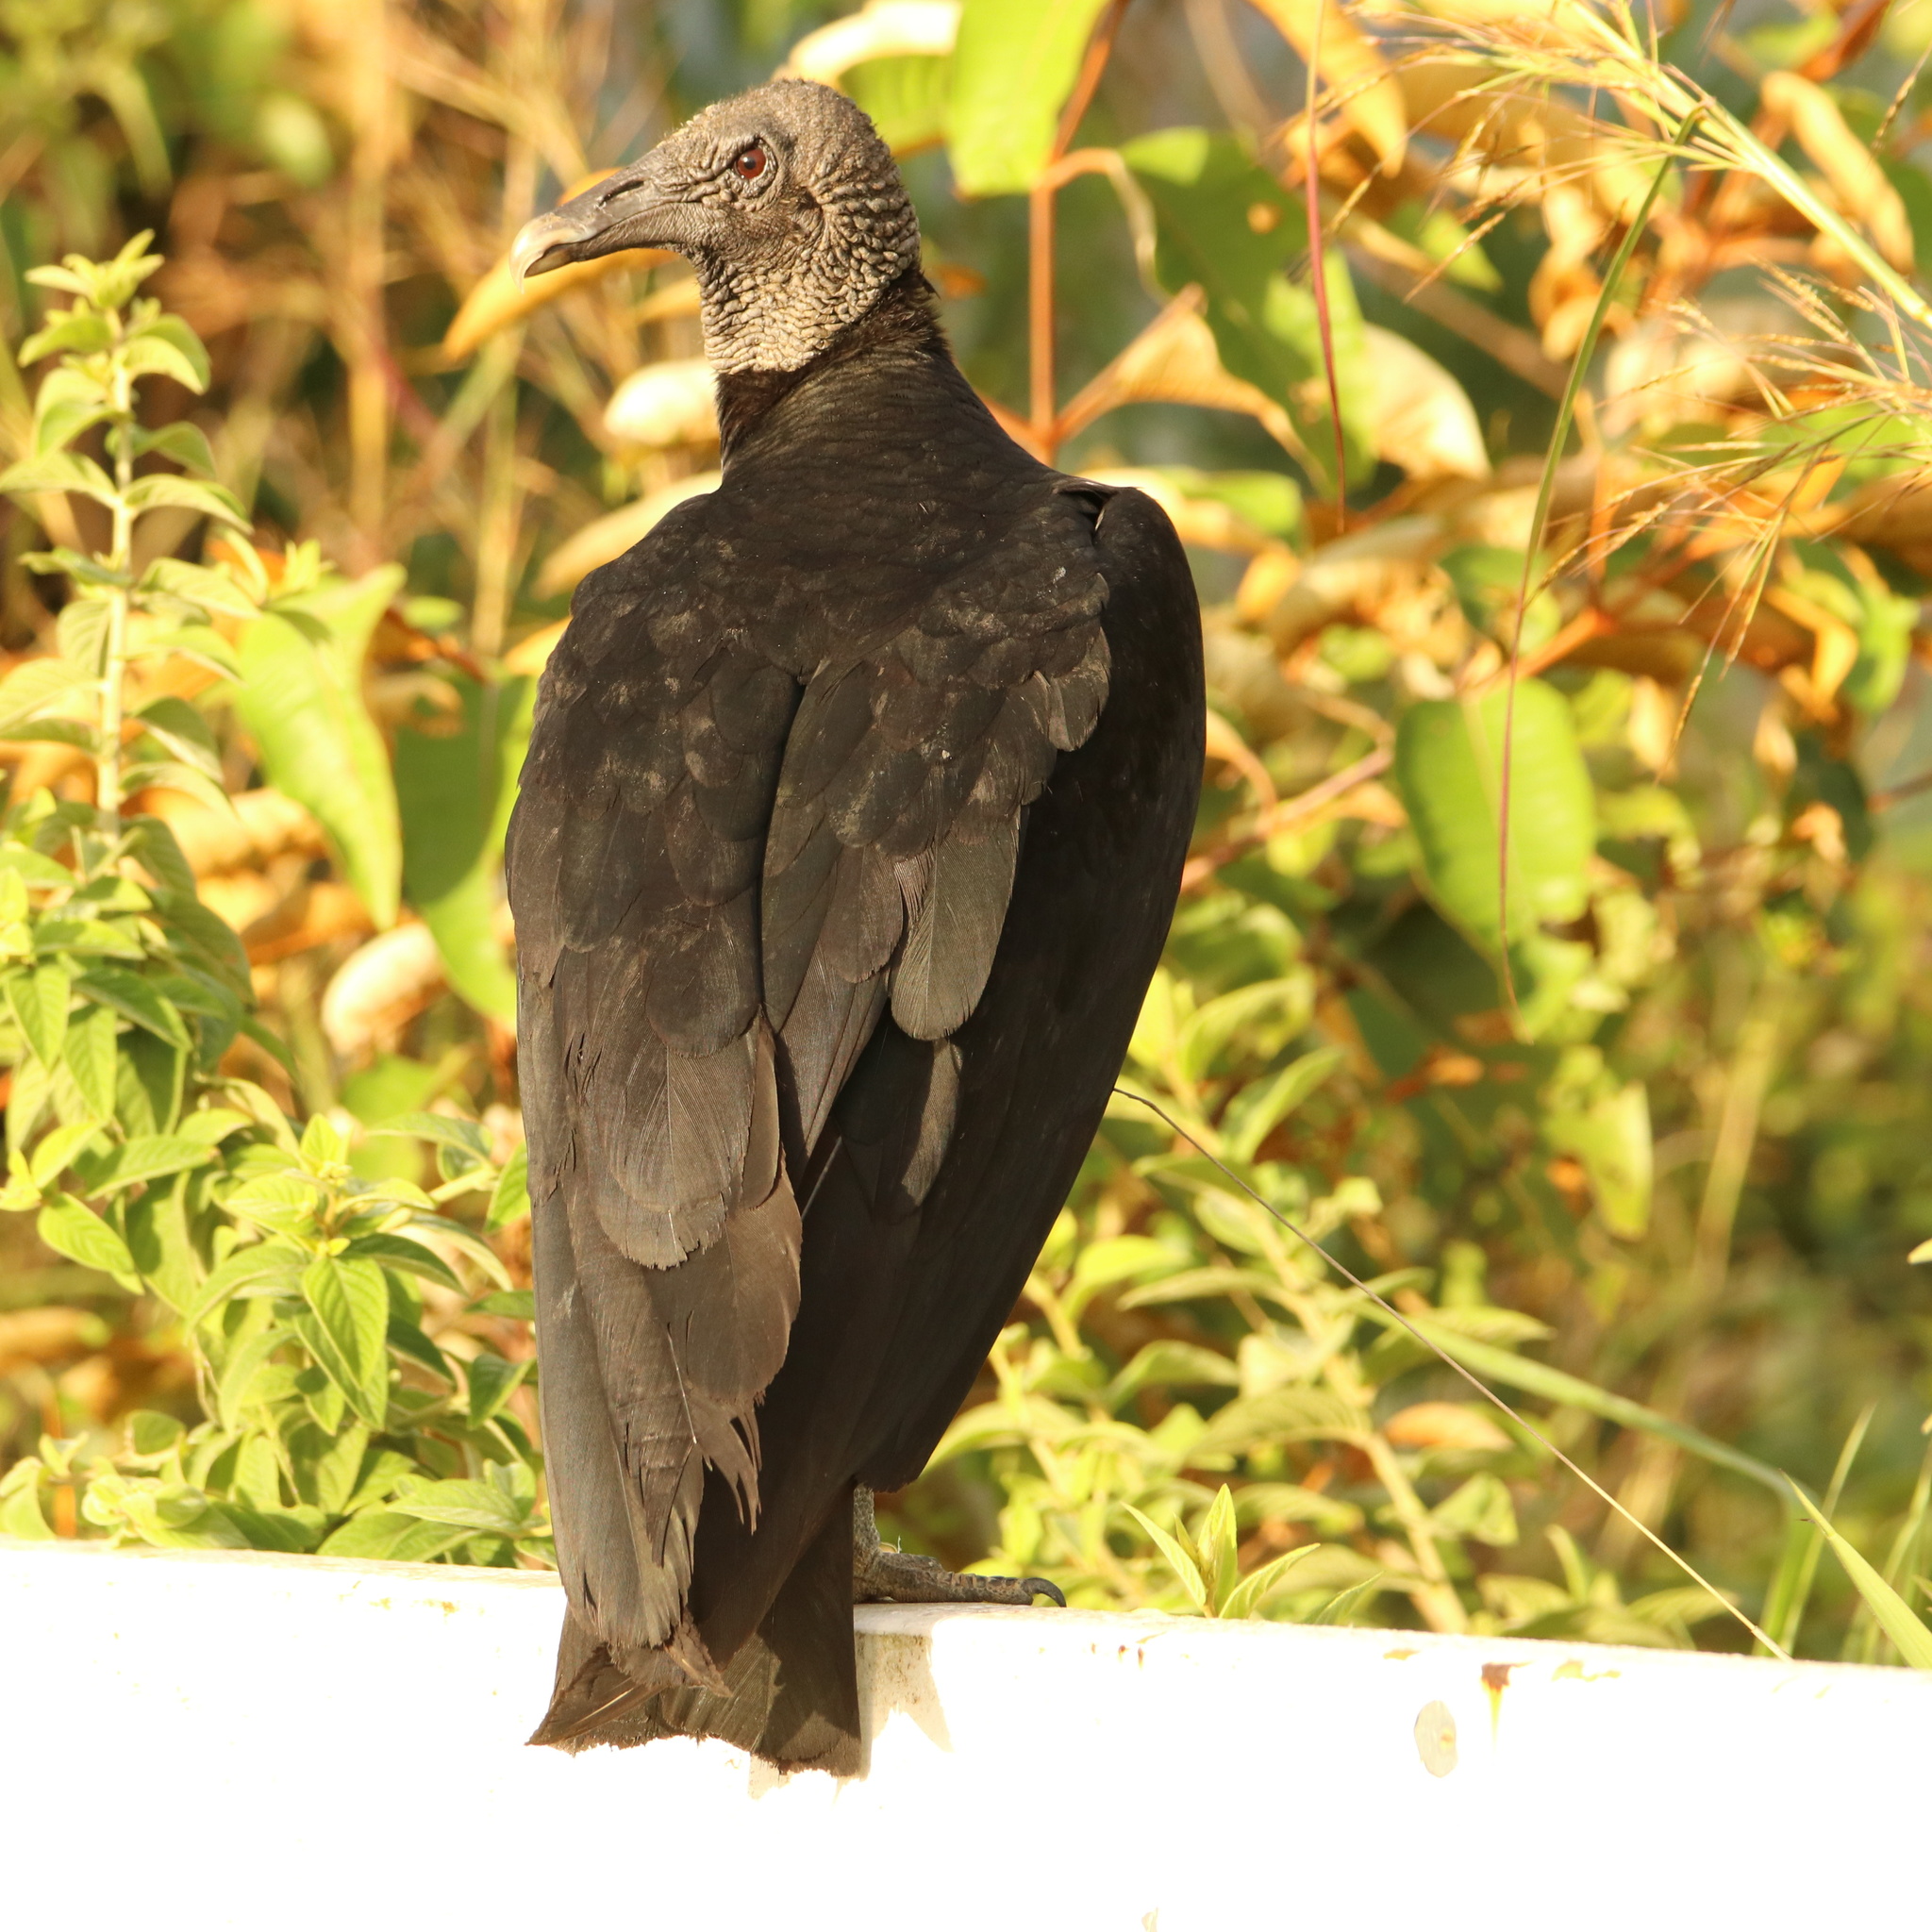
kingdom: Animalia
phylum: Chordata
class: Aves
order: Accipitriformes
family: Cathartidae
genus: Coragyps
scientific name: Coragyps atratus
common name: Black vulture
